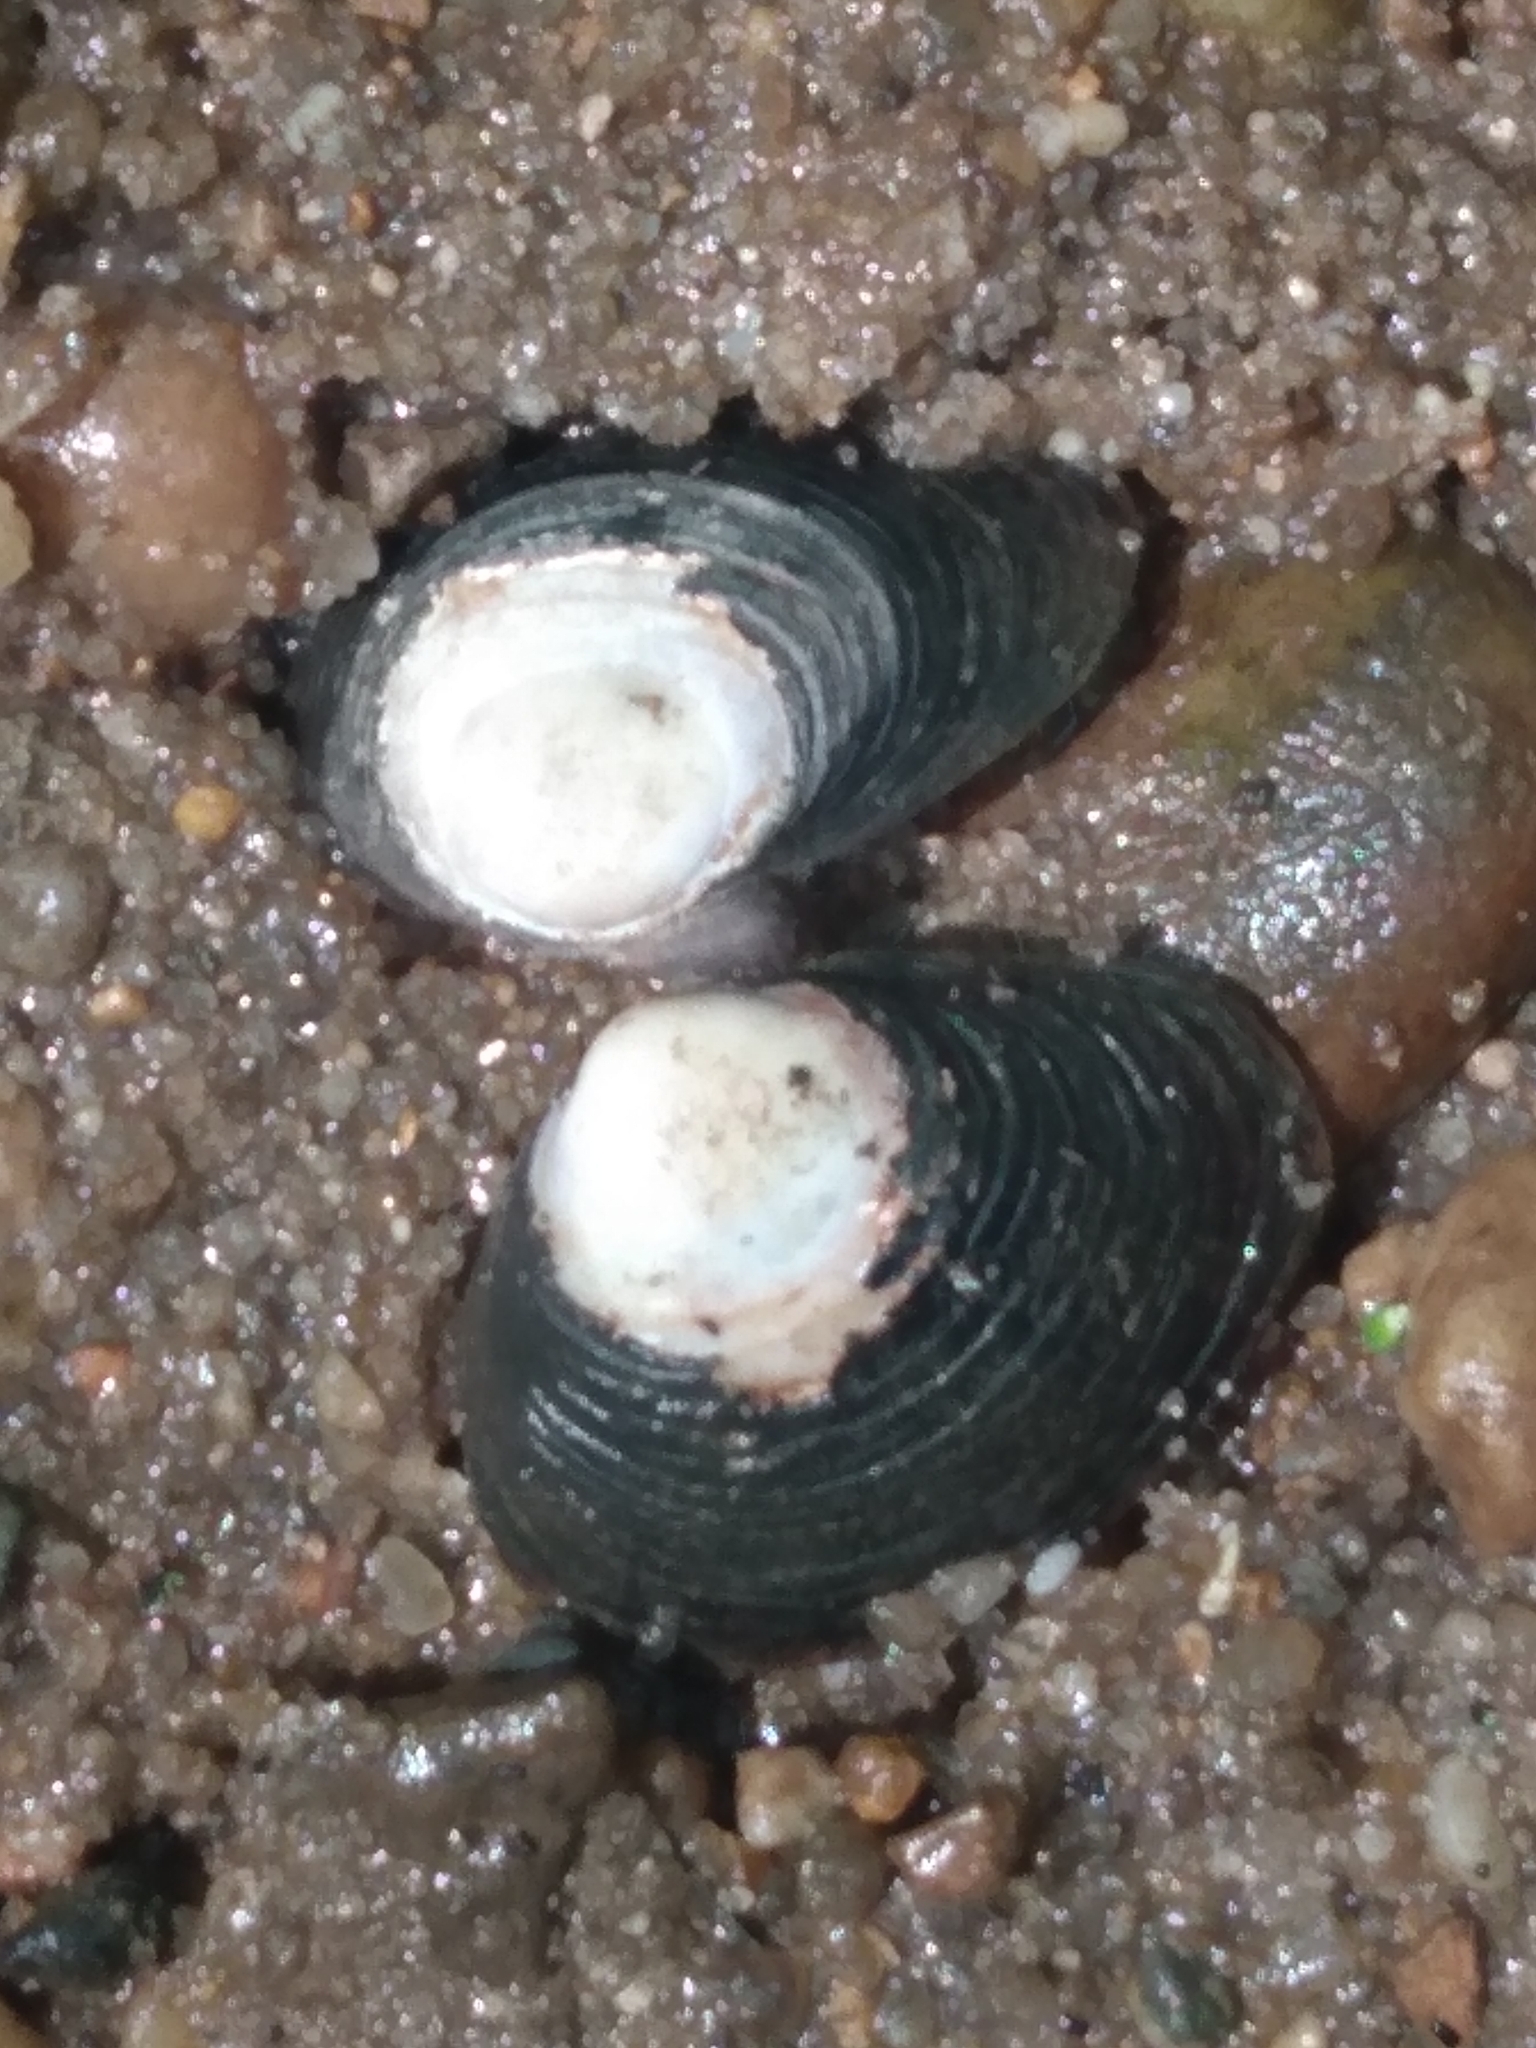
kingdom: Animalia
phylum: Mollusca
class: Bivalvia
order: Venerida
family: Cyrenidae
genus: Corbicula
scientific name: Corbicula fluminea
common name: Asian clam
